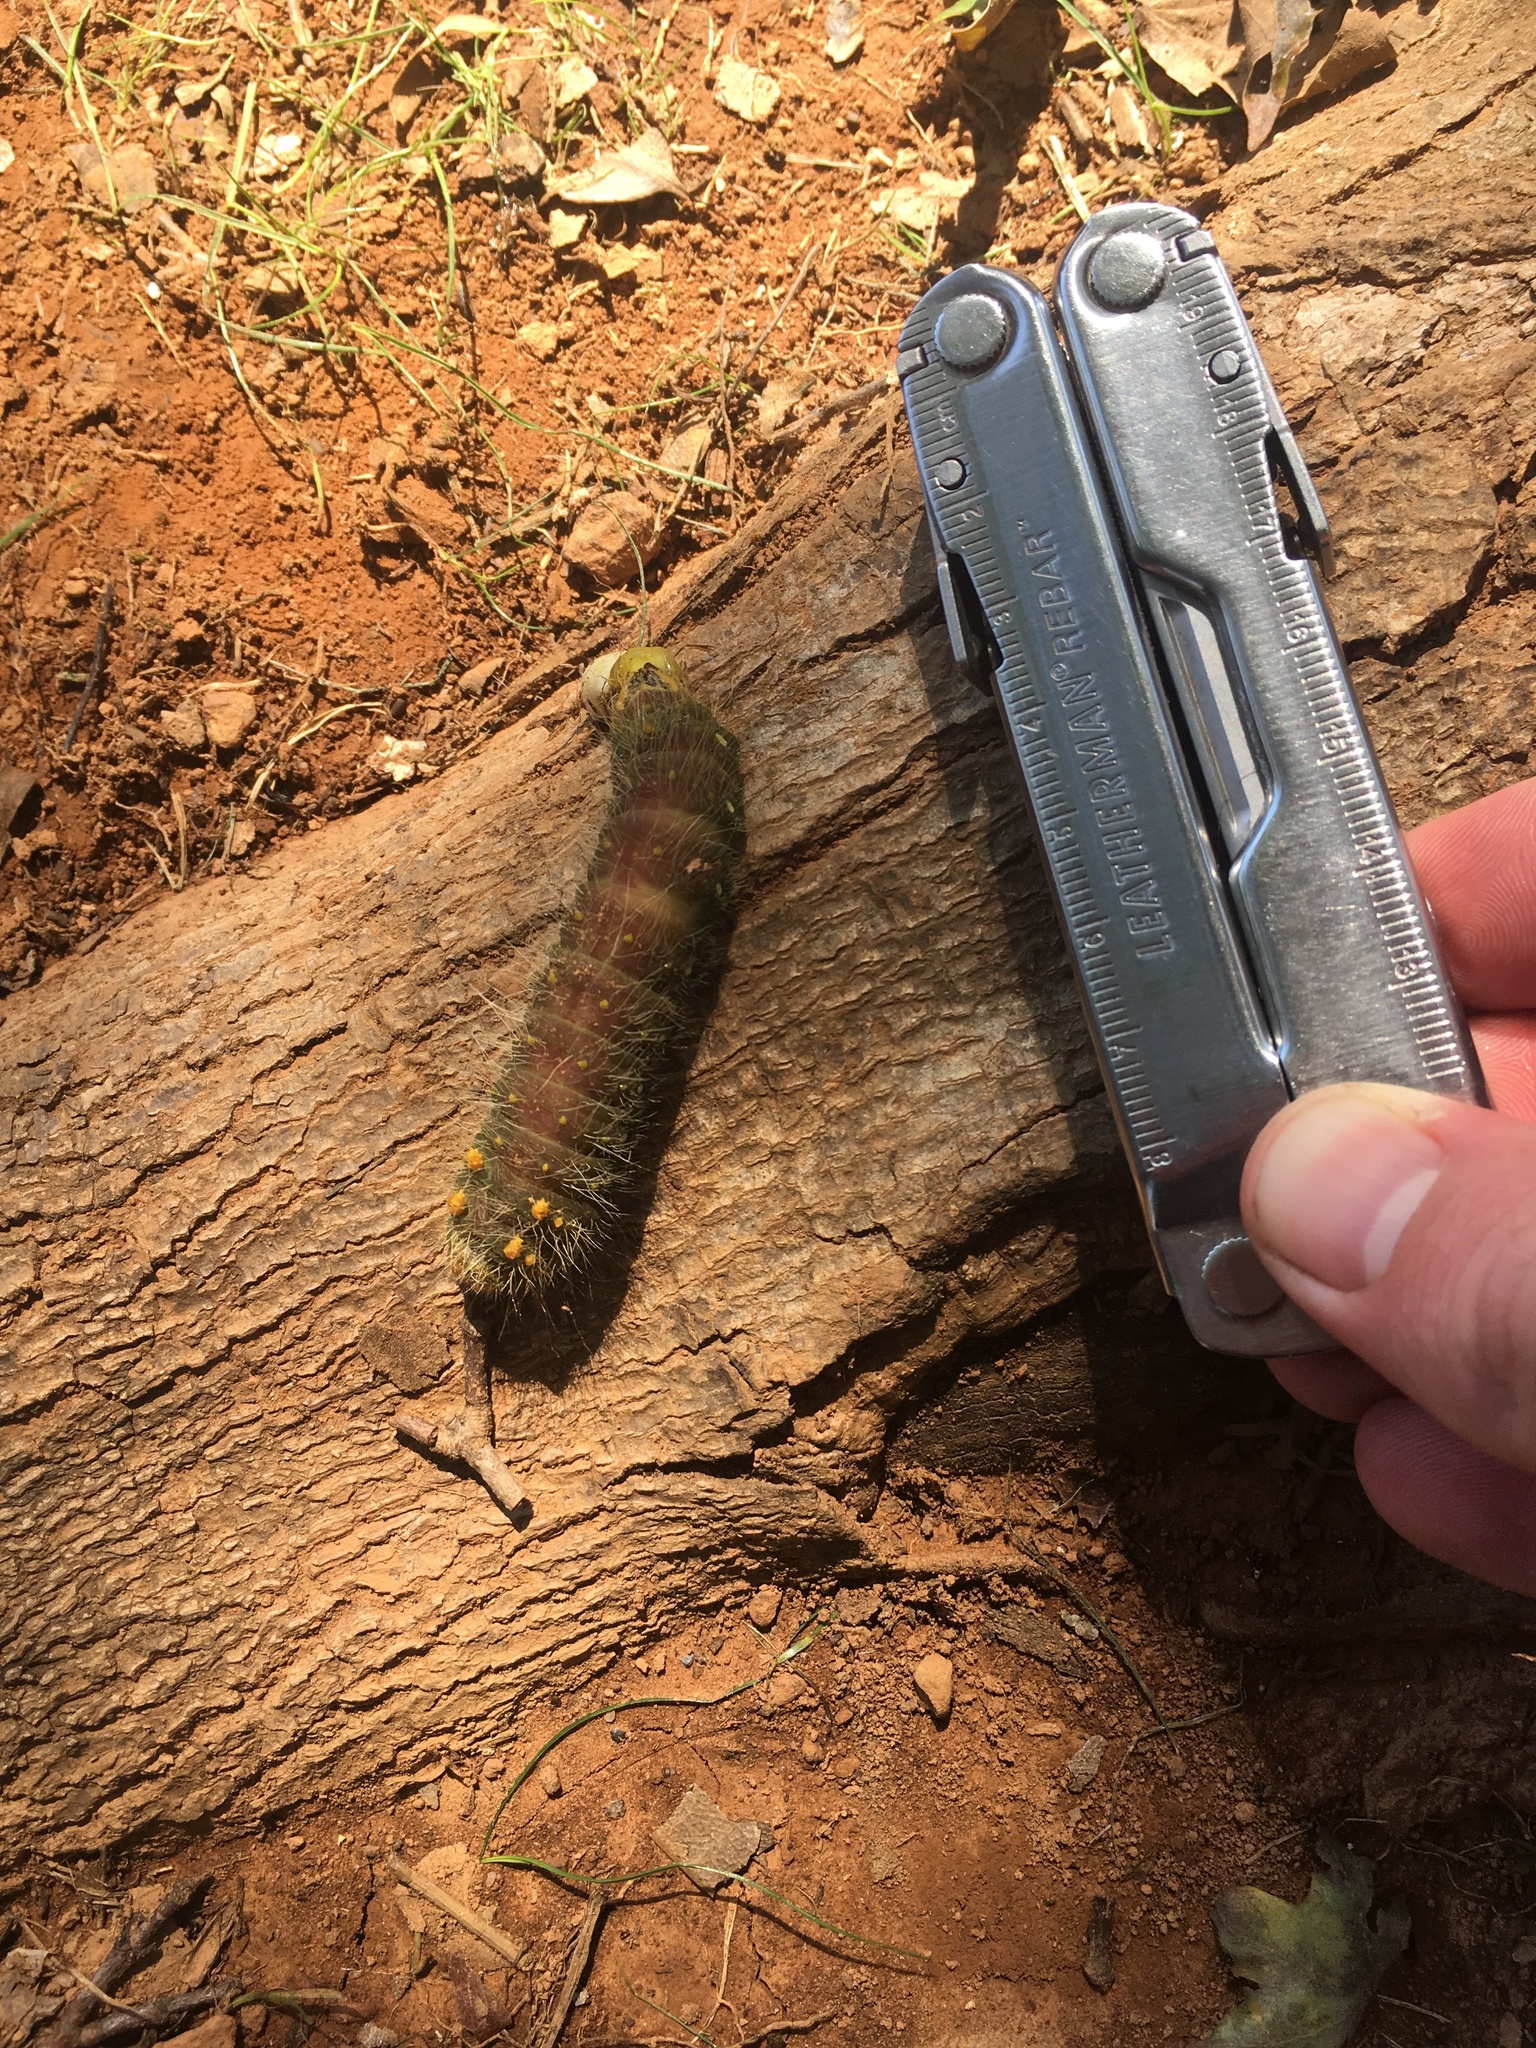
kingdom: Animalia
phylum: Arthropoda
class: Insecta
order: Lepidoptera
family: Saturniidae
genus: Eacles
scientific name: Eacles imperialis
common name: Imperial moth
